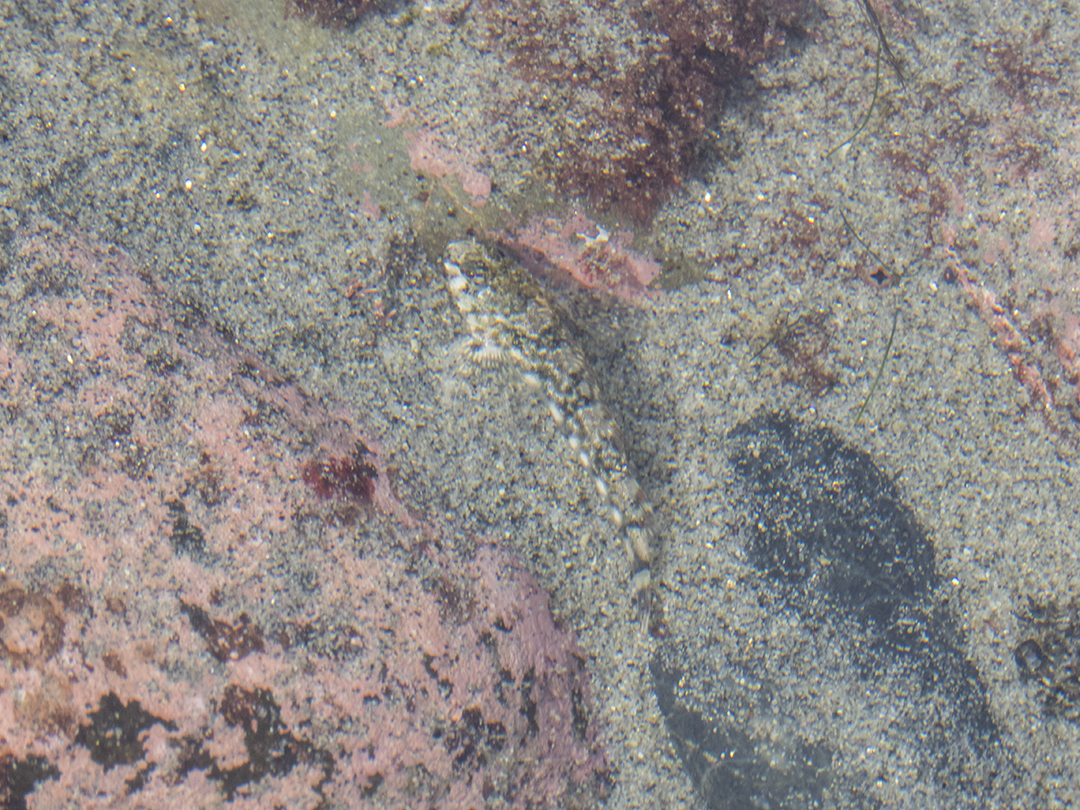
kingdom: Animalia
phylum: Chordata
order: Perciformes
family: Tripterygiidae
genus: Bellapiscis
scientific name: Bellapiscis lesleyae
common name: Mottled twister
